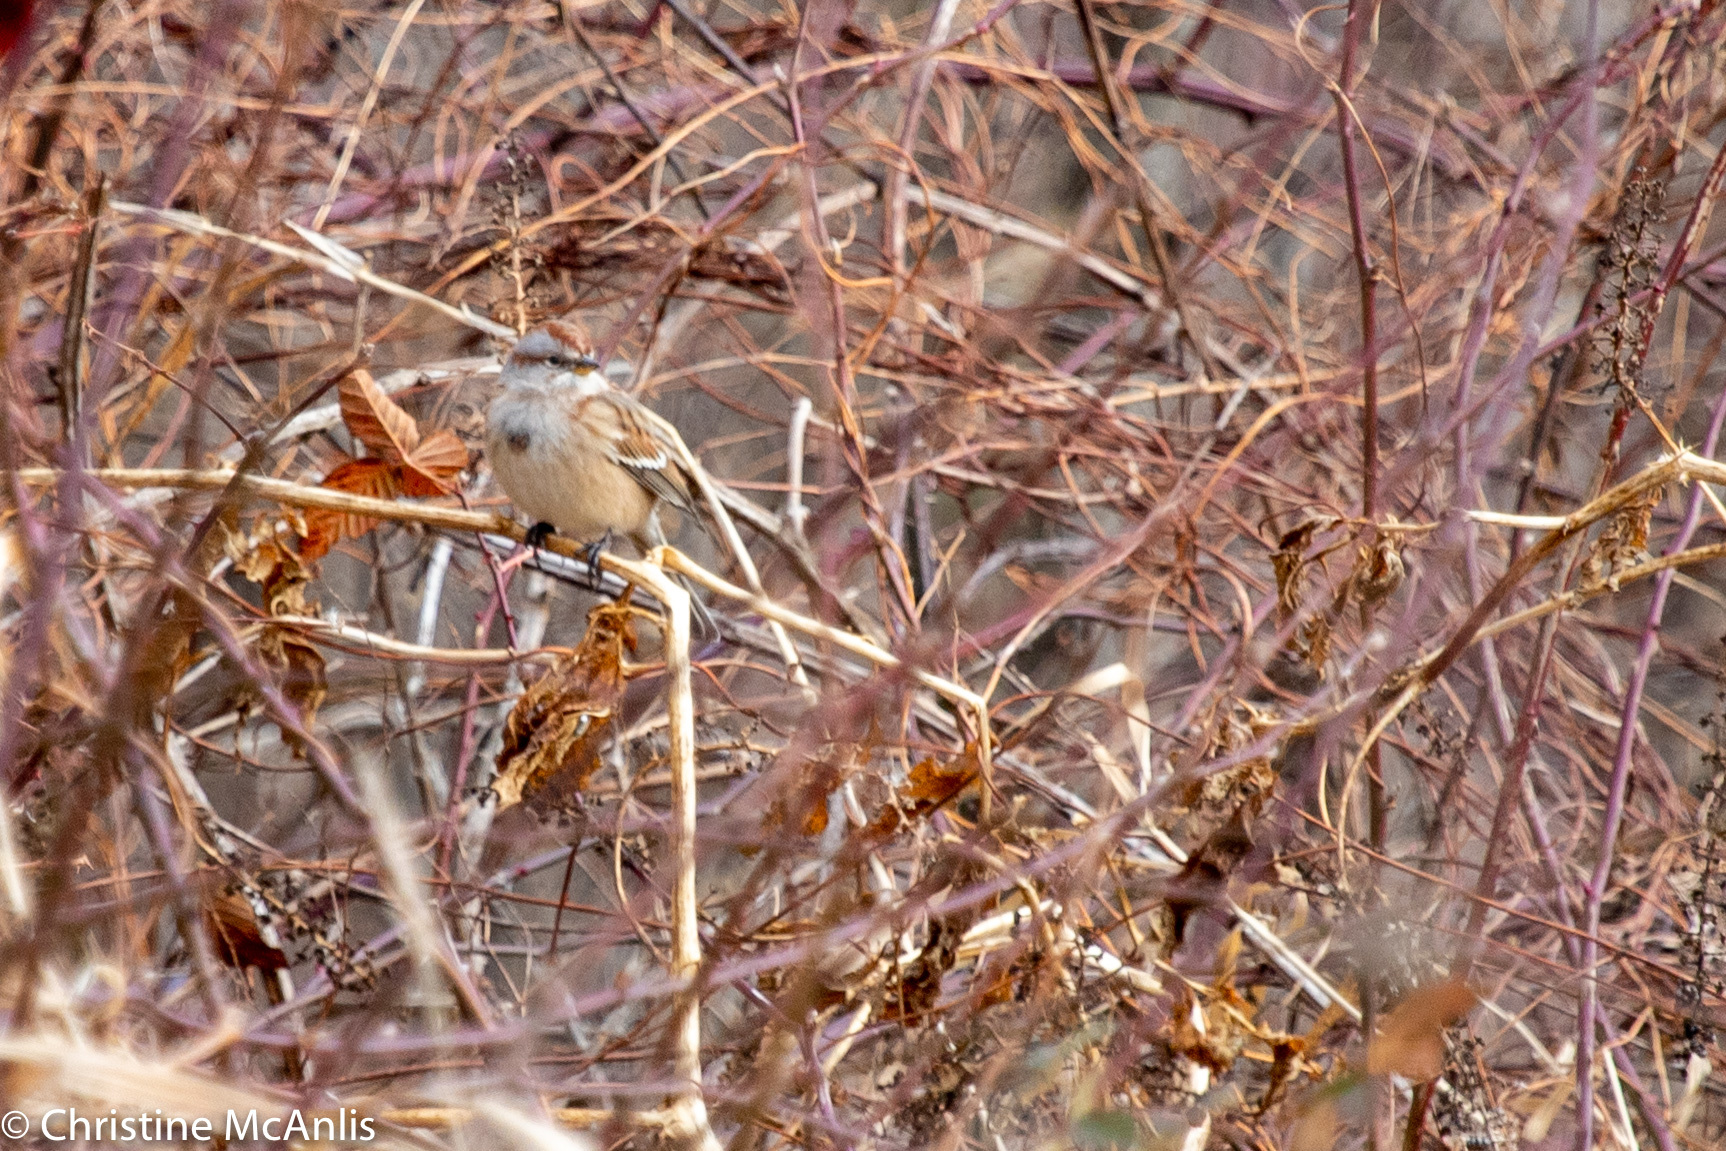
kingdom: Animalia
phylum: Chordata
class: Aves
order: Passeriformes
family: Passerellidae
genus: Spizelloides
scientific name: Spizelloides arborea
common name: American tree sparrow
